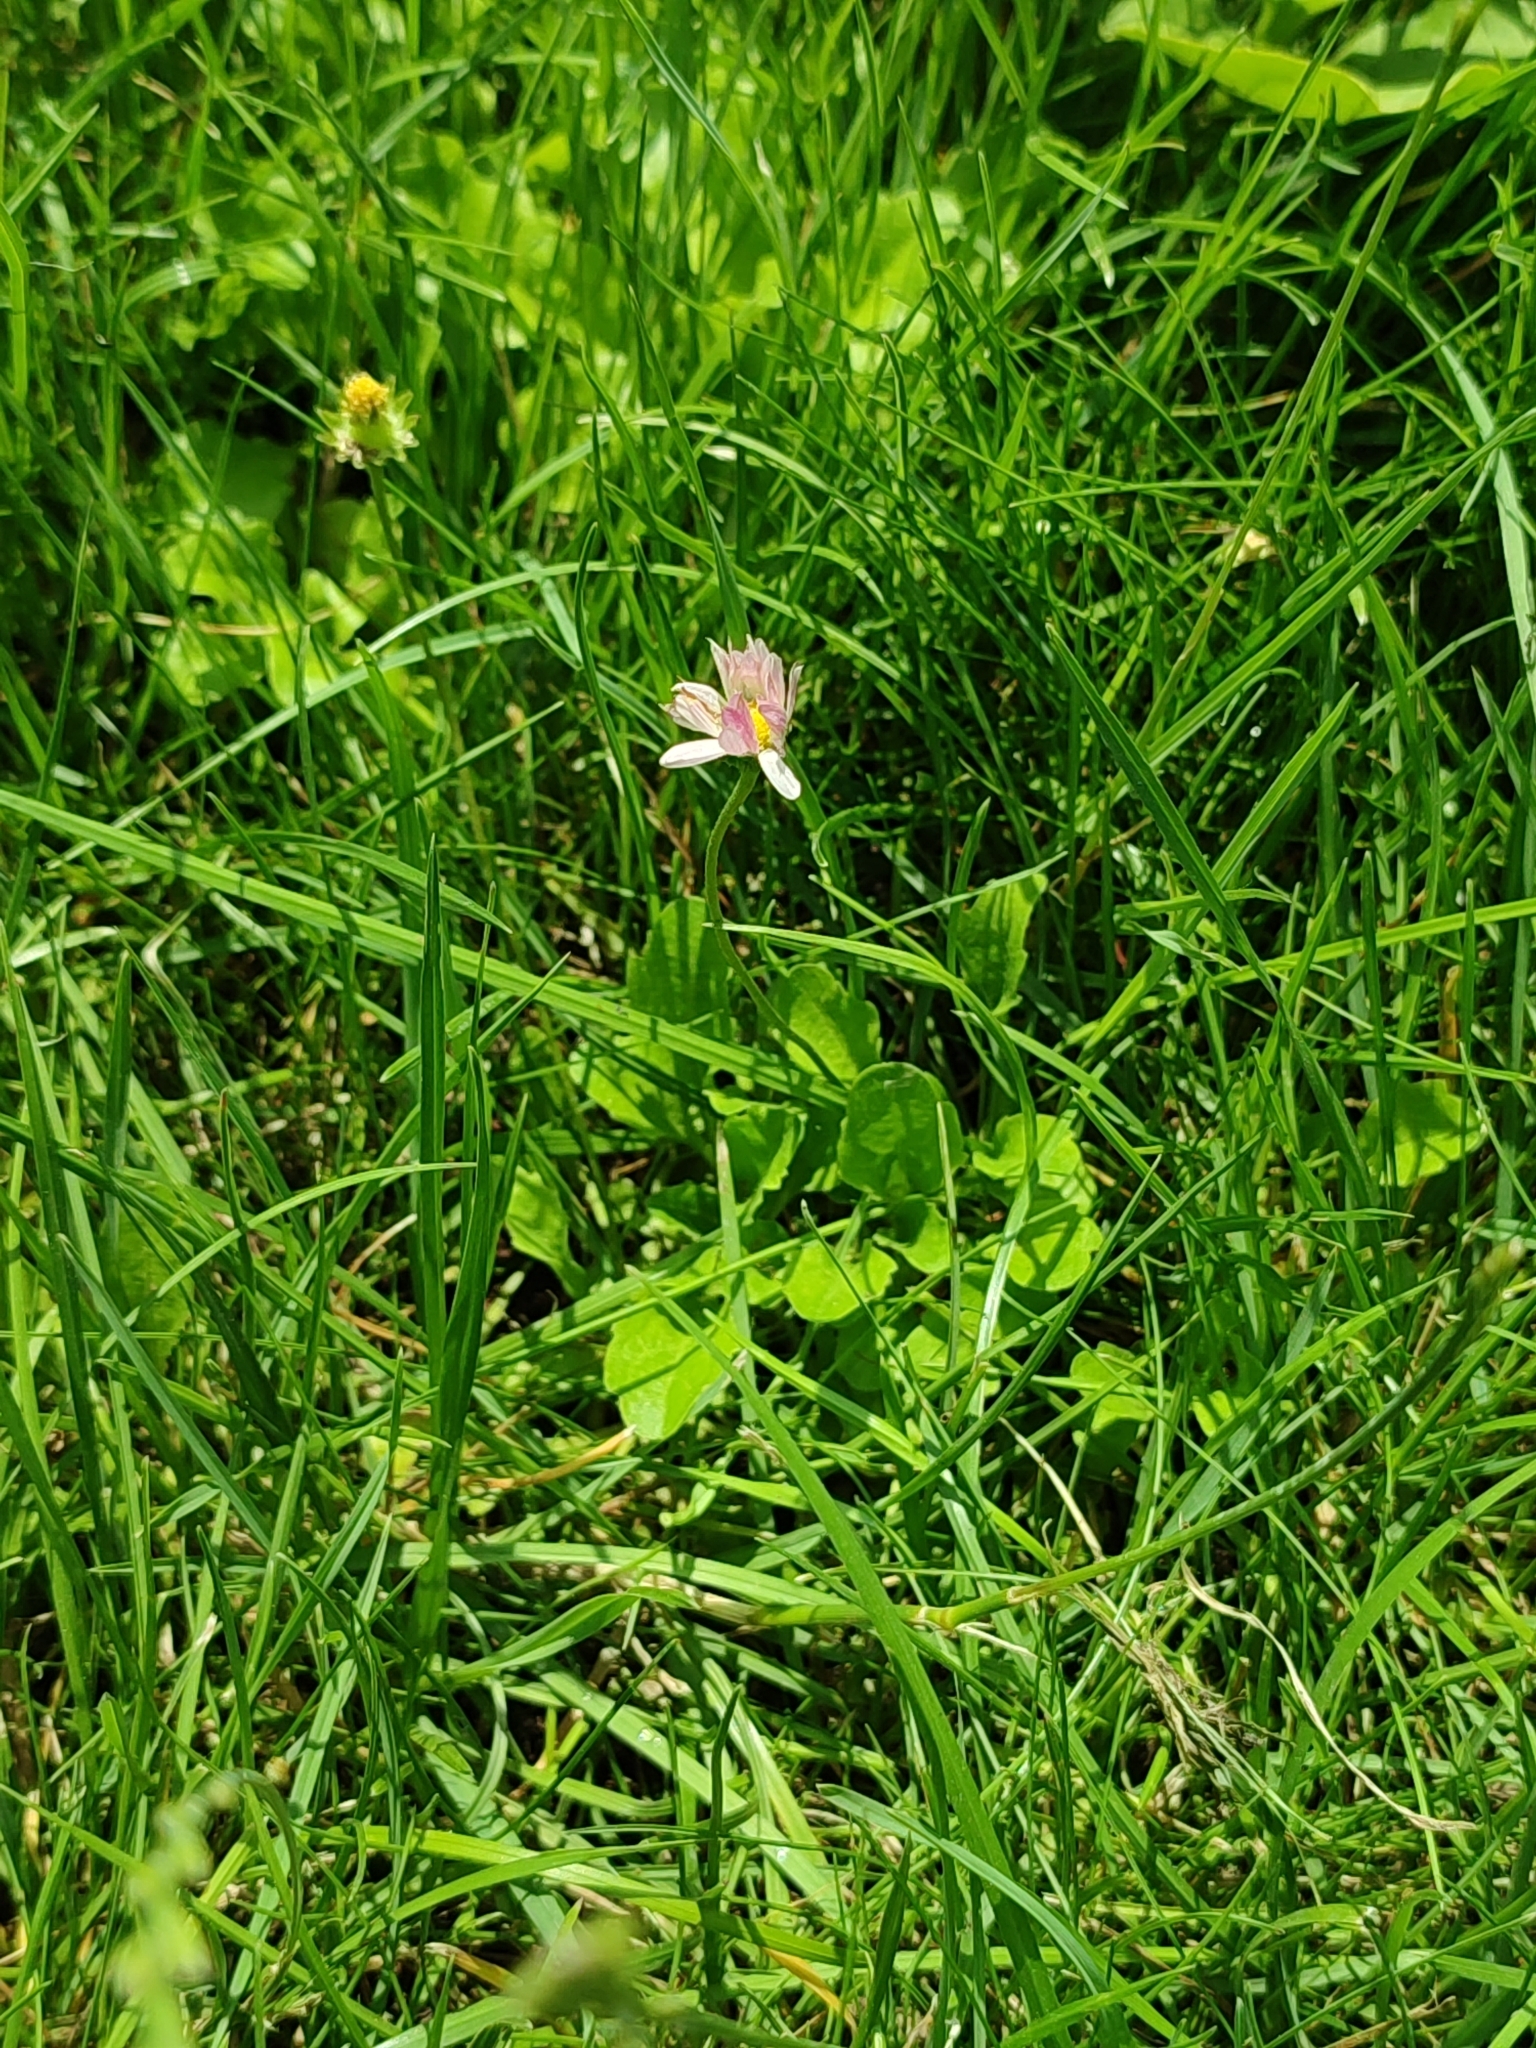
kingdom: Plantae
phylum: Tracheophyta
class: Magnoliopsida
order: Asterales
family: Asteraceae
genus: Bellis
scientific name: Bellis perennis
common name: Lawndaisy
